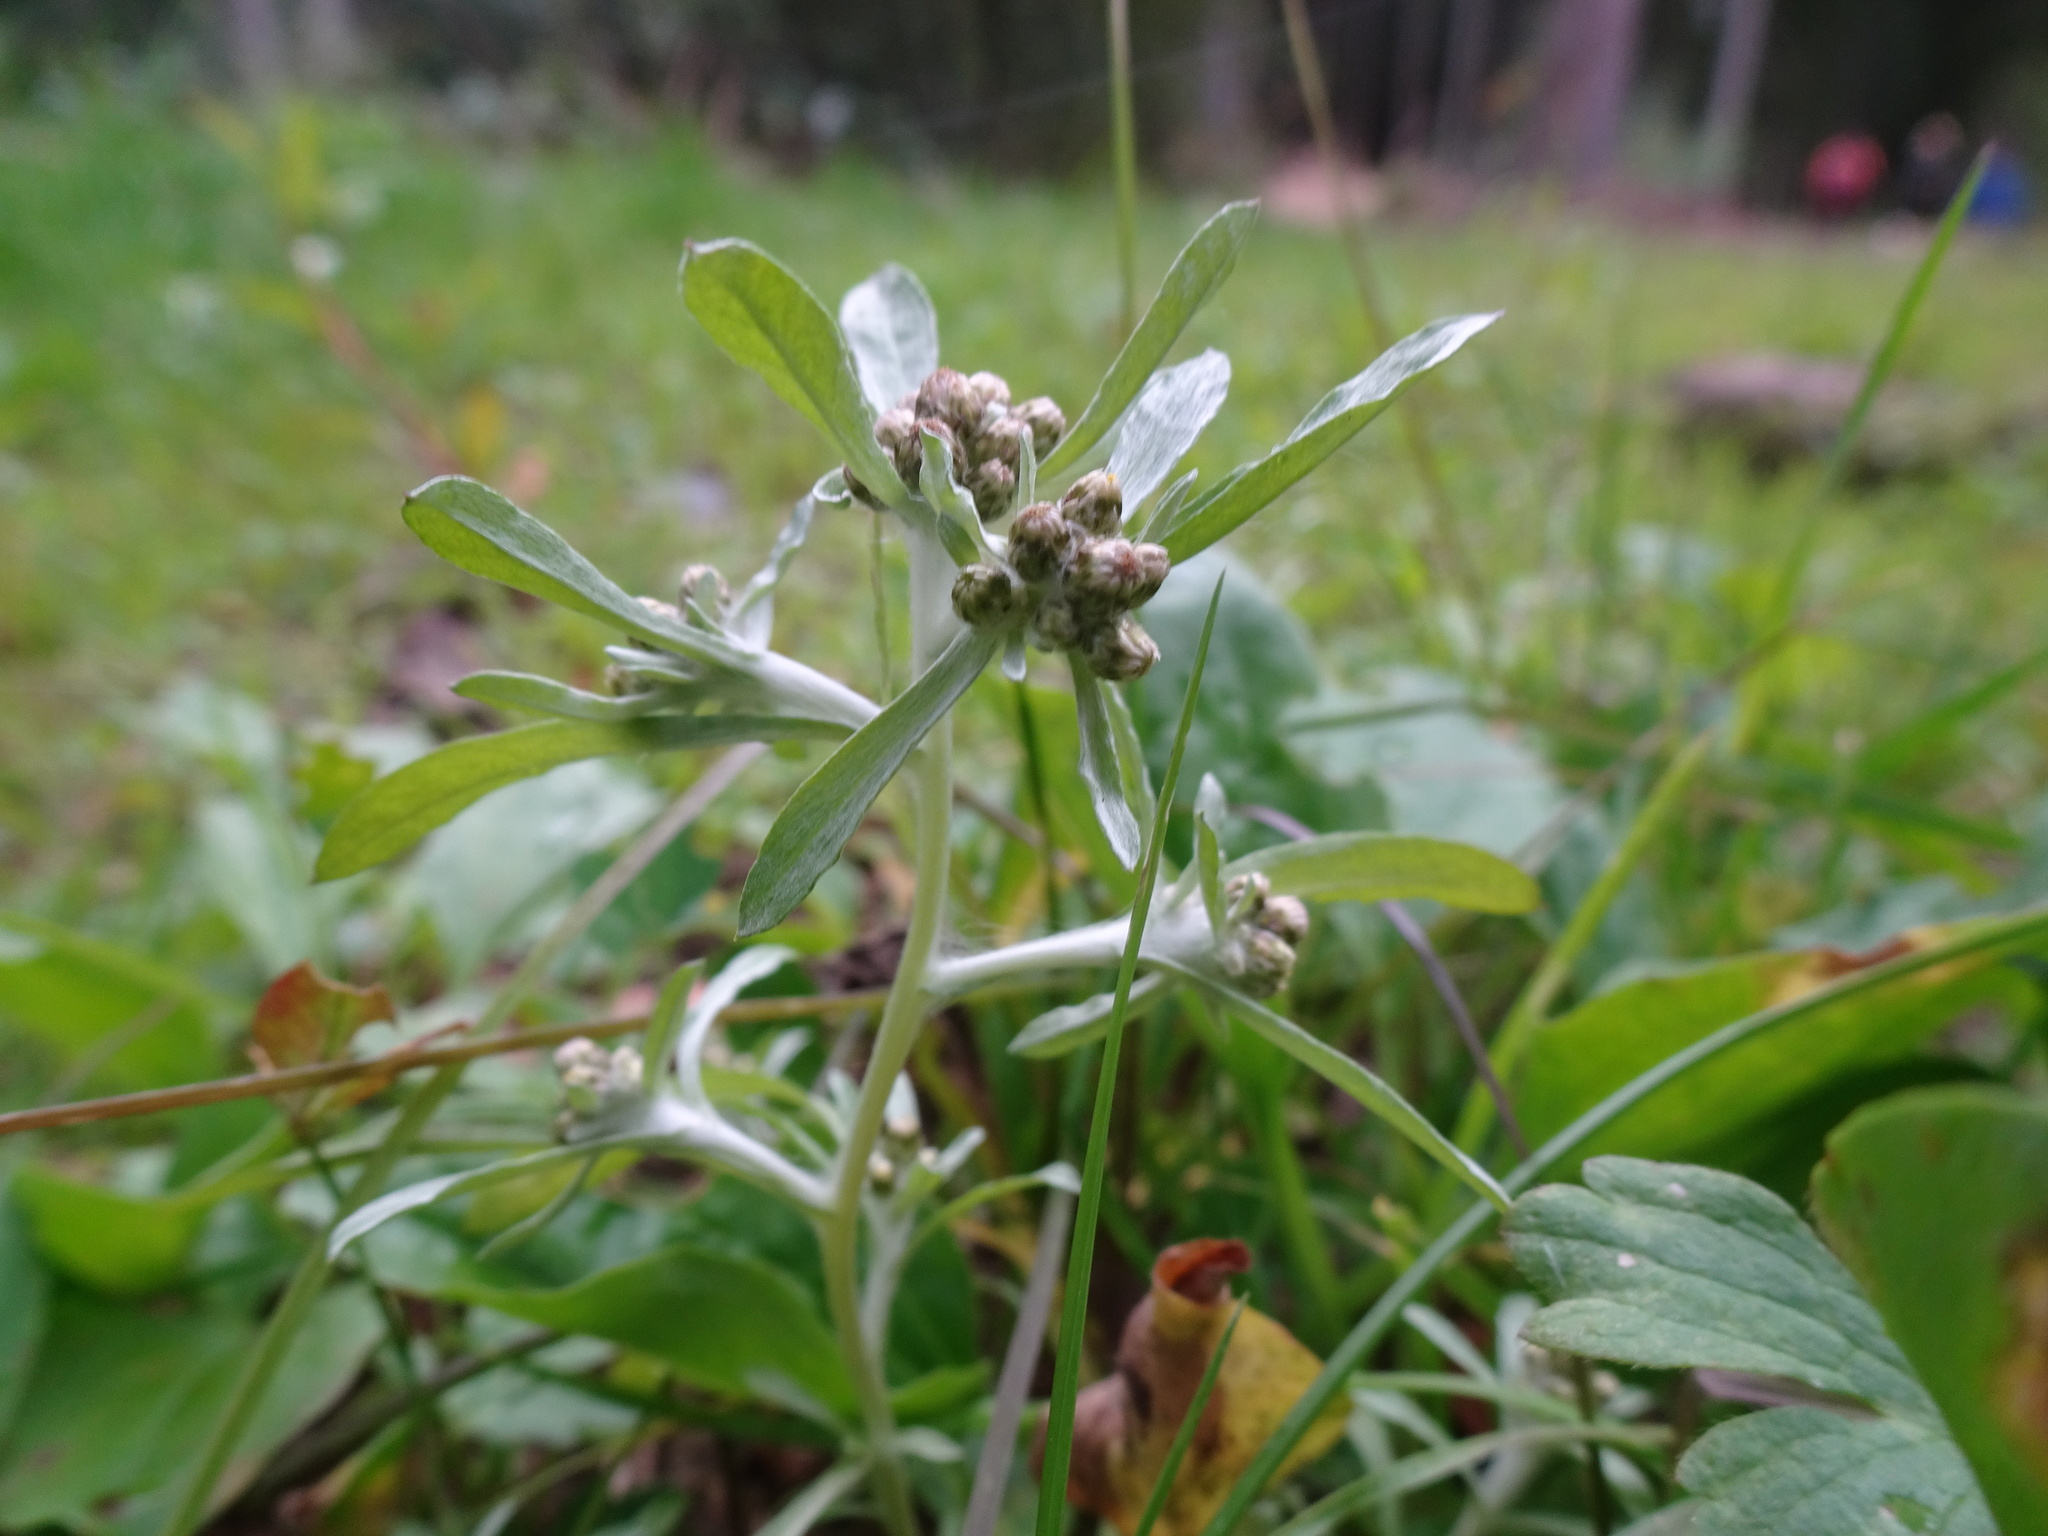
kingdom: Plantae
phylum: Tracheophyta
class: Magnoliopsida
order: Asterales
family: Asteraceae
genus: Gnaphalium
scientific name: Gnaphalium uliginosum
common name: Marsh cudweed
